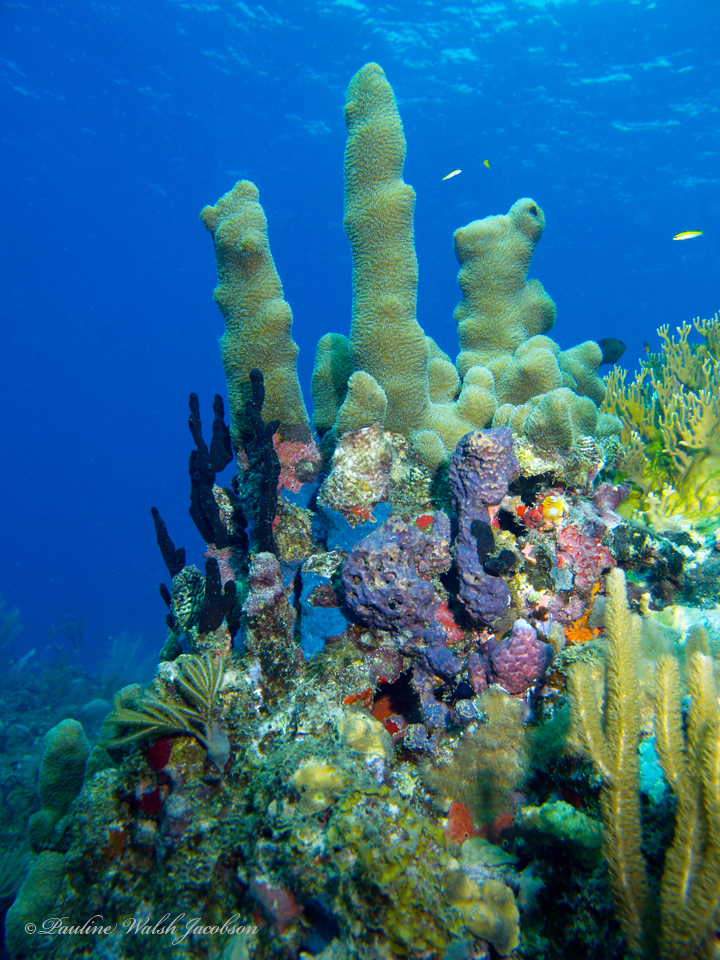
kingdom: Animalia
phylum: Cnidaria
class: Anthozoa
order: Scleractinia
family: Meandrinidae
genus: Dendrogyra
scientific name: Dendrogyra cylindrus
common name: Pillar coral
